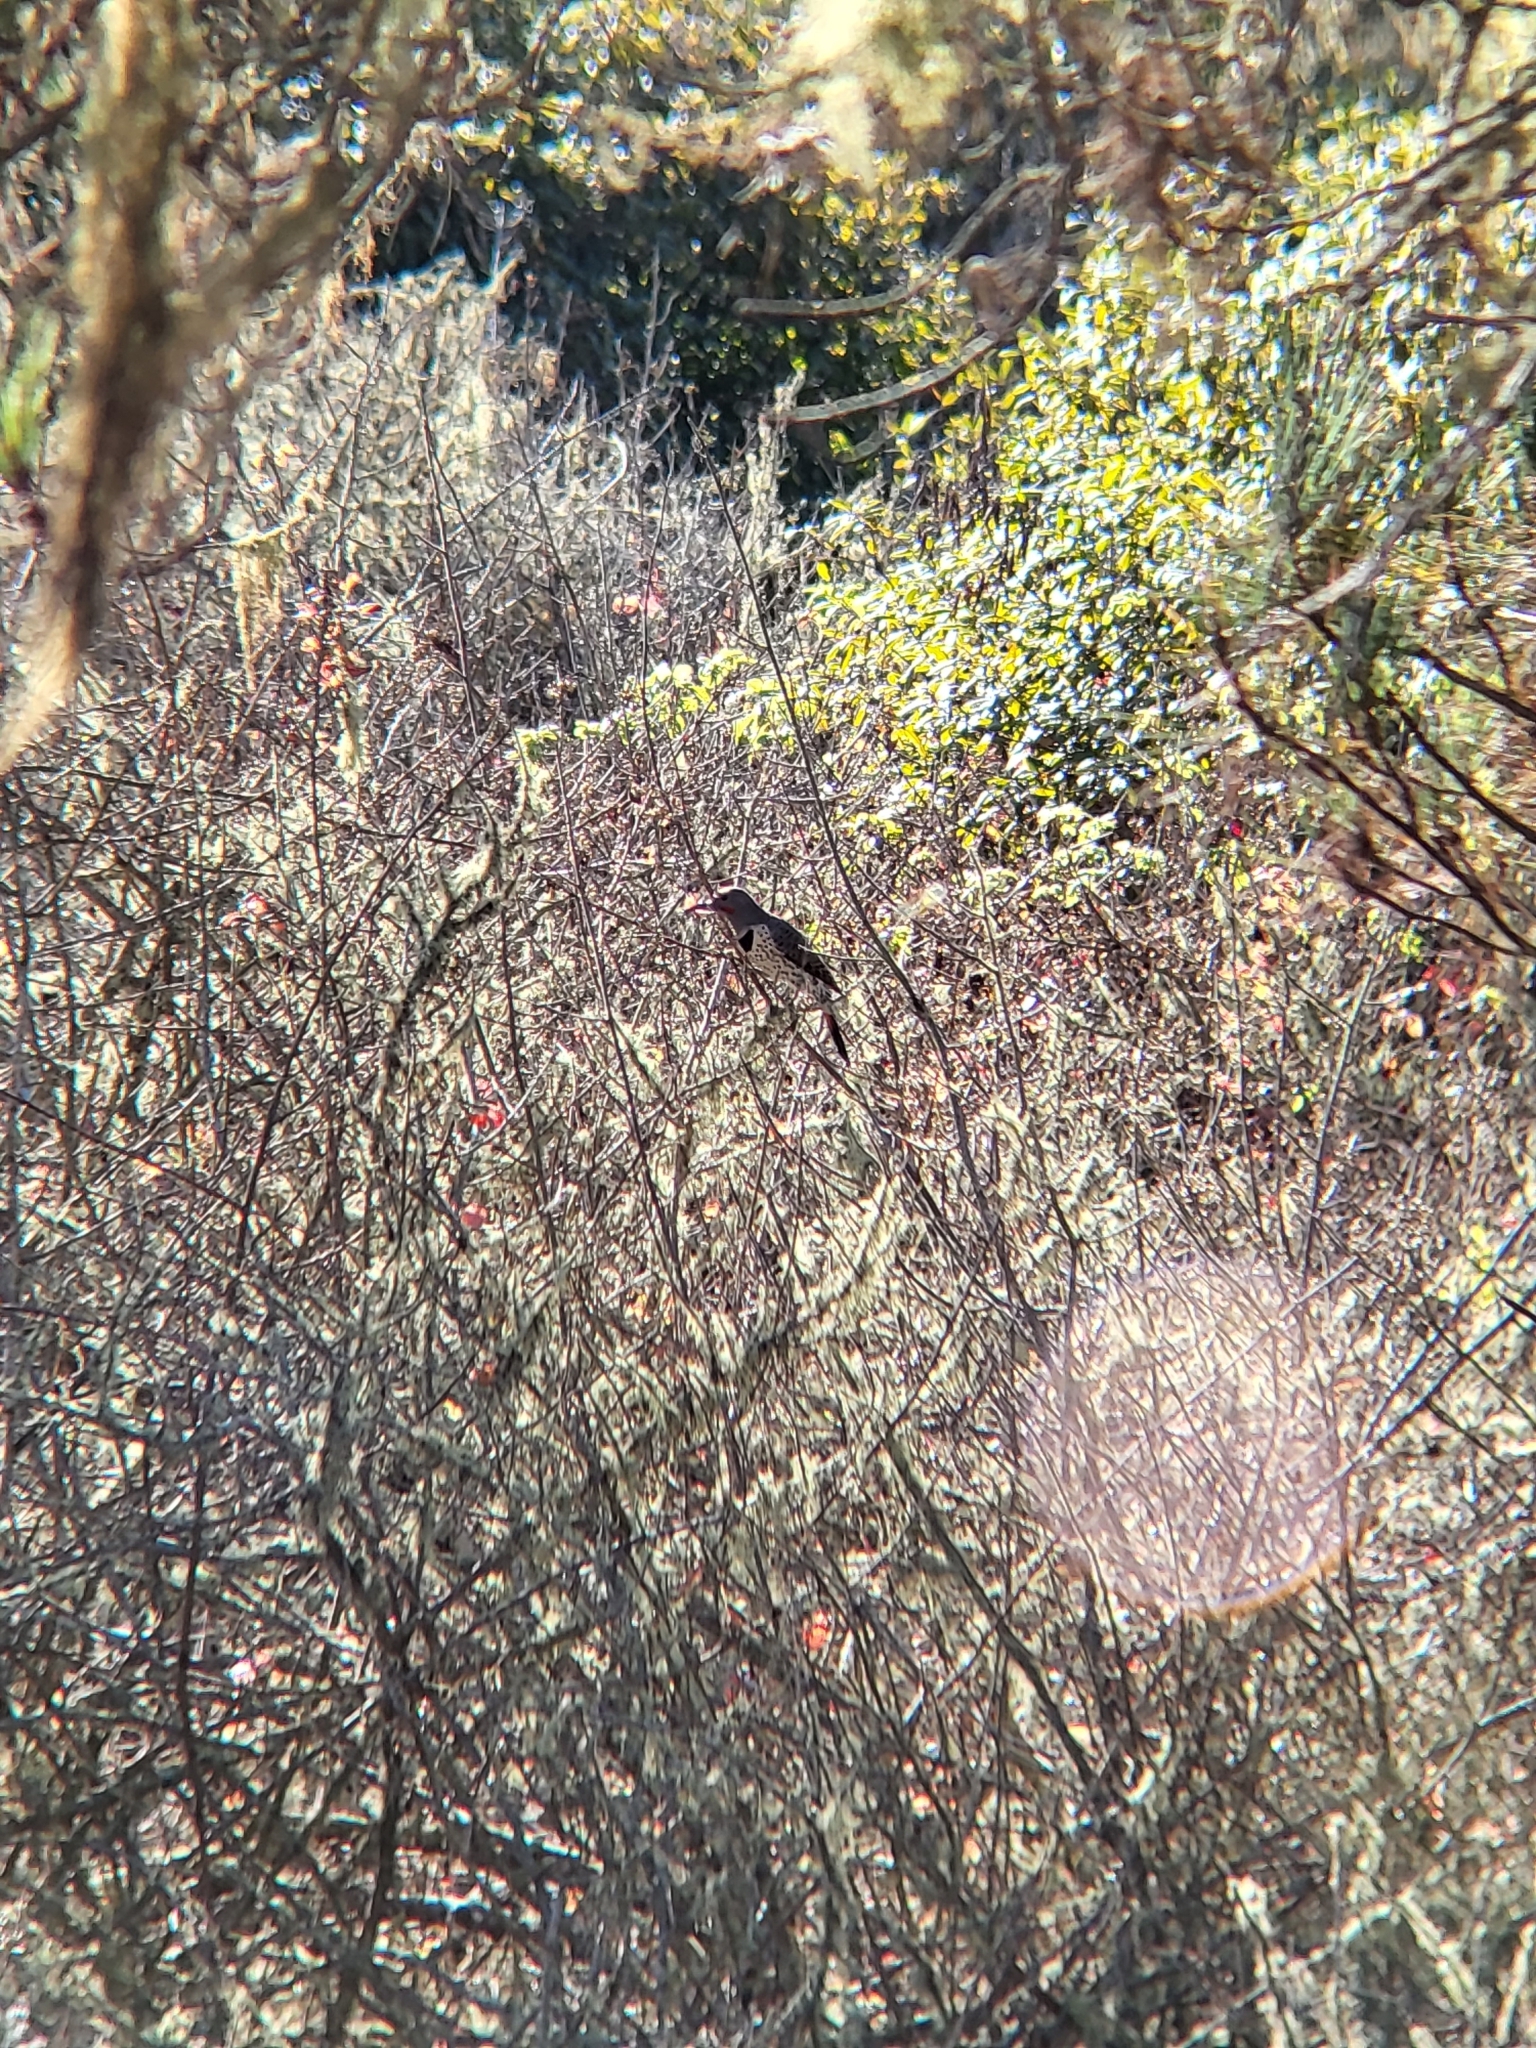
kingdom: Animalia
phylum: Chordata
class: Aves
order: Piciformes
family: Picidae
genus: Colaptes
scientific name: Colaptes auratus
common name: Northern flicker
